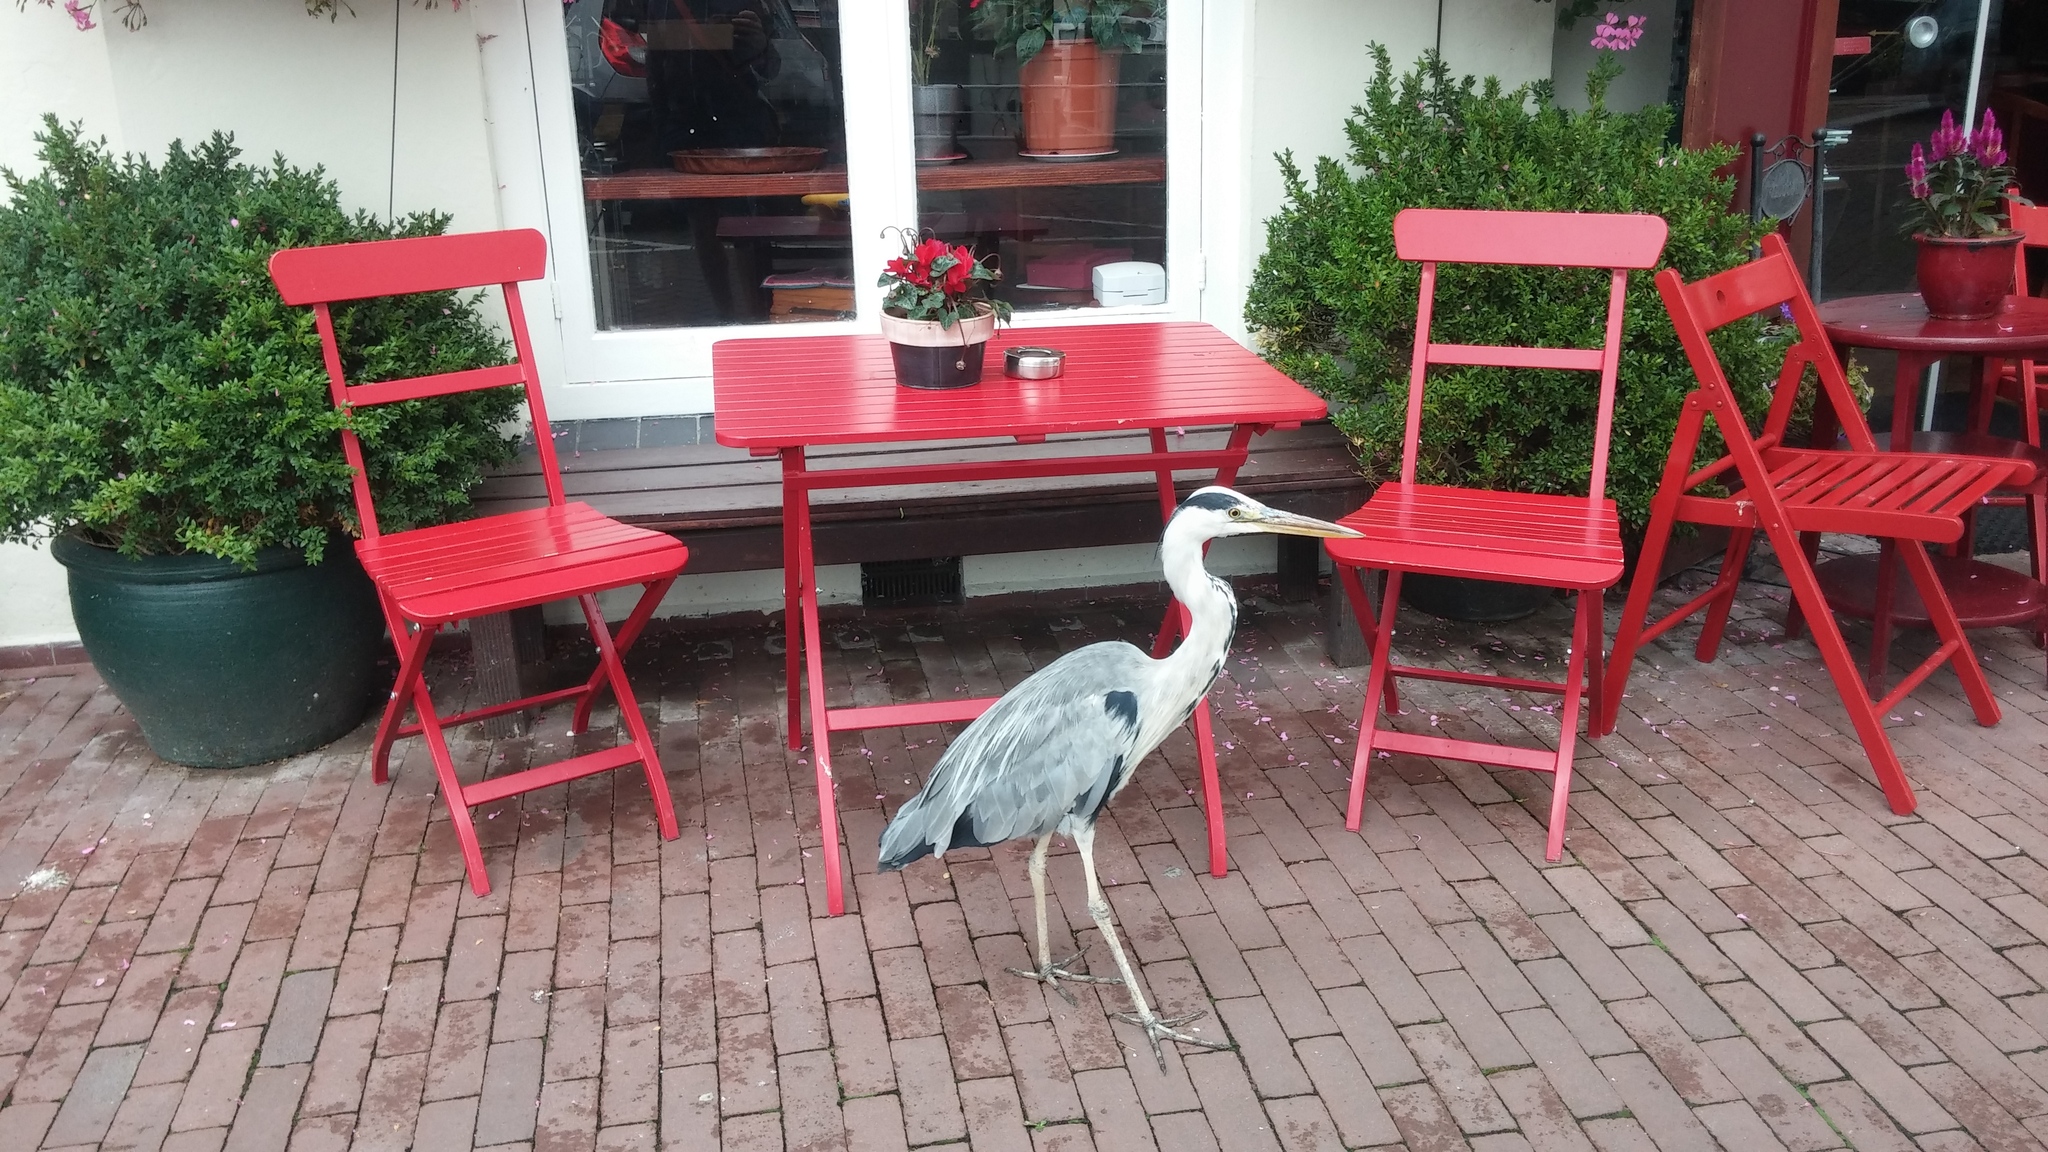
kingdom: Animalia
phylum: Chordata
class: Aves
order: Pelecaniformes
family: Ardeidae
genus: Ardea
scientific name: Ardea cinerea
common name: Grey heron
